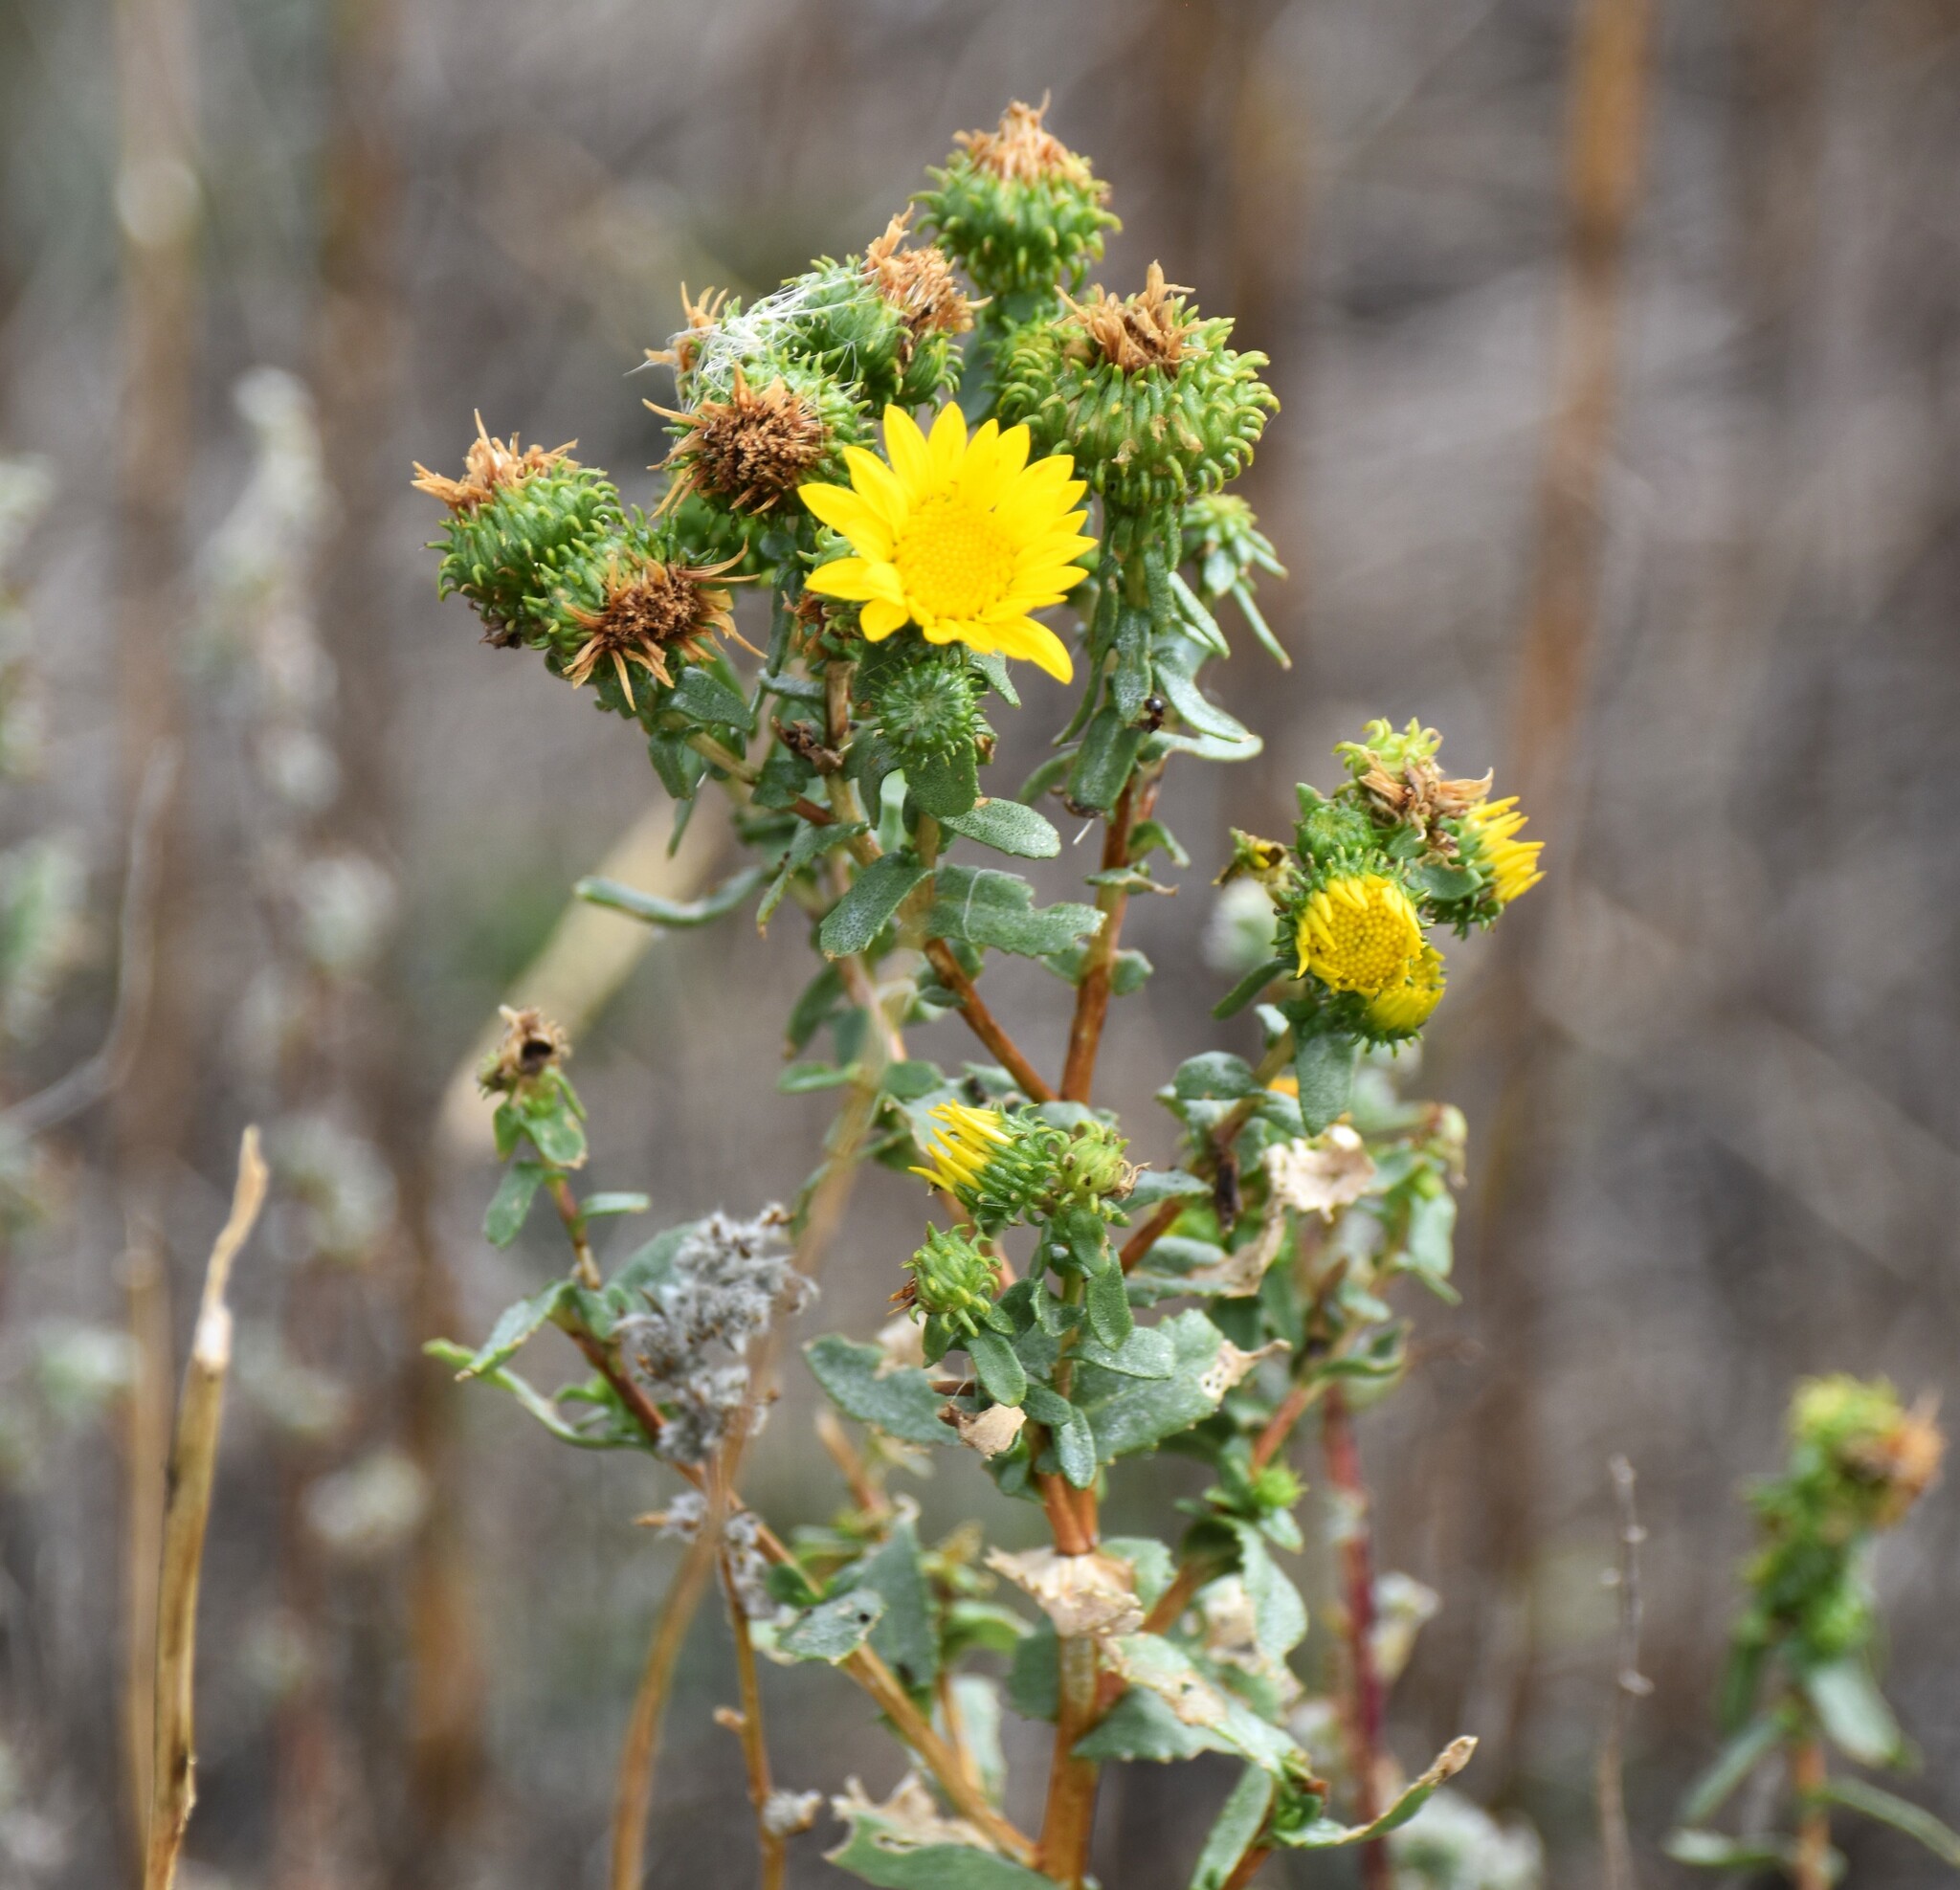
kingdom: Plantae
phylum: Tracheophyta
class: Magnoliopsida
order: Asterales
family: Asteraceae
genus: Grindelia
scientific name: Grindelia squarrosa
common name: Curly-cup gumweed
